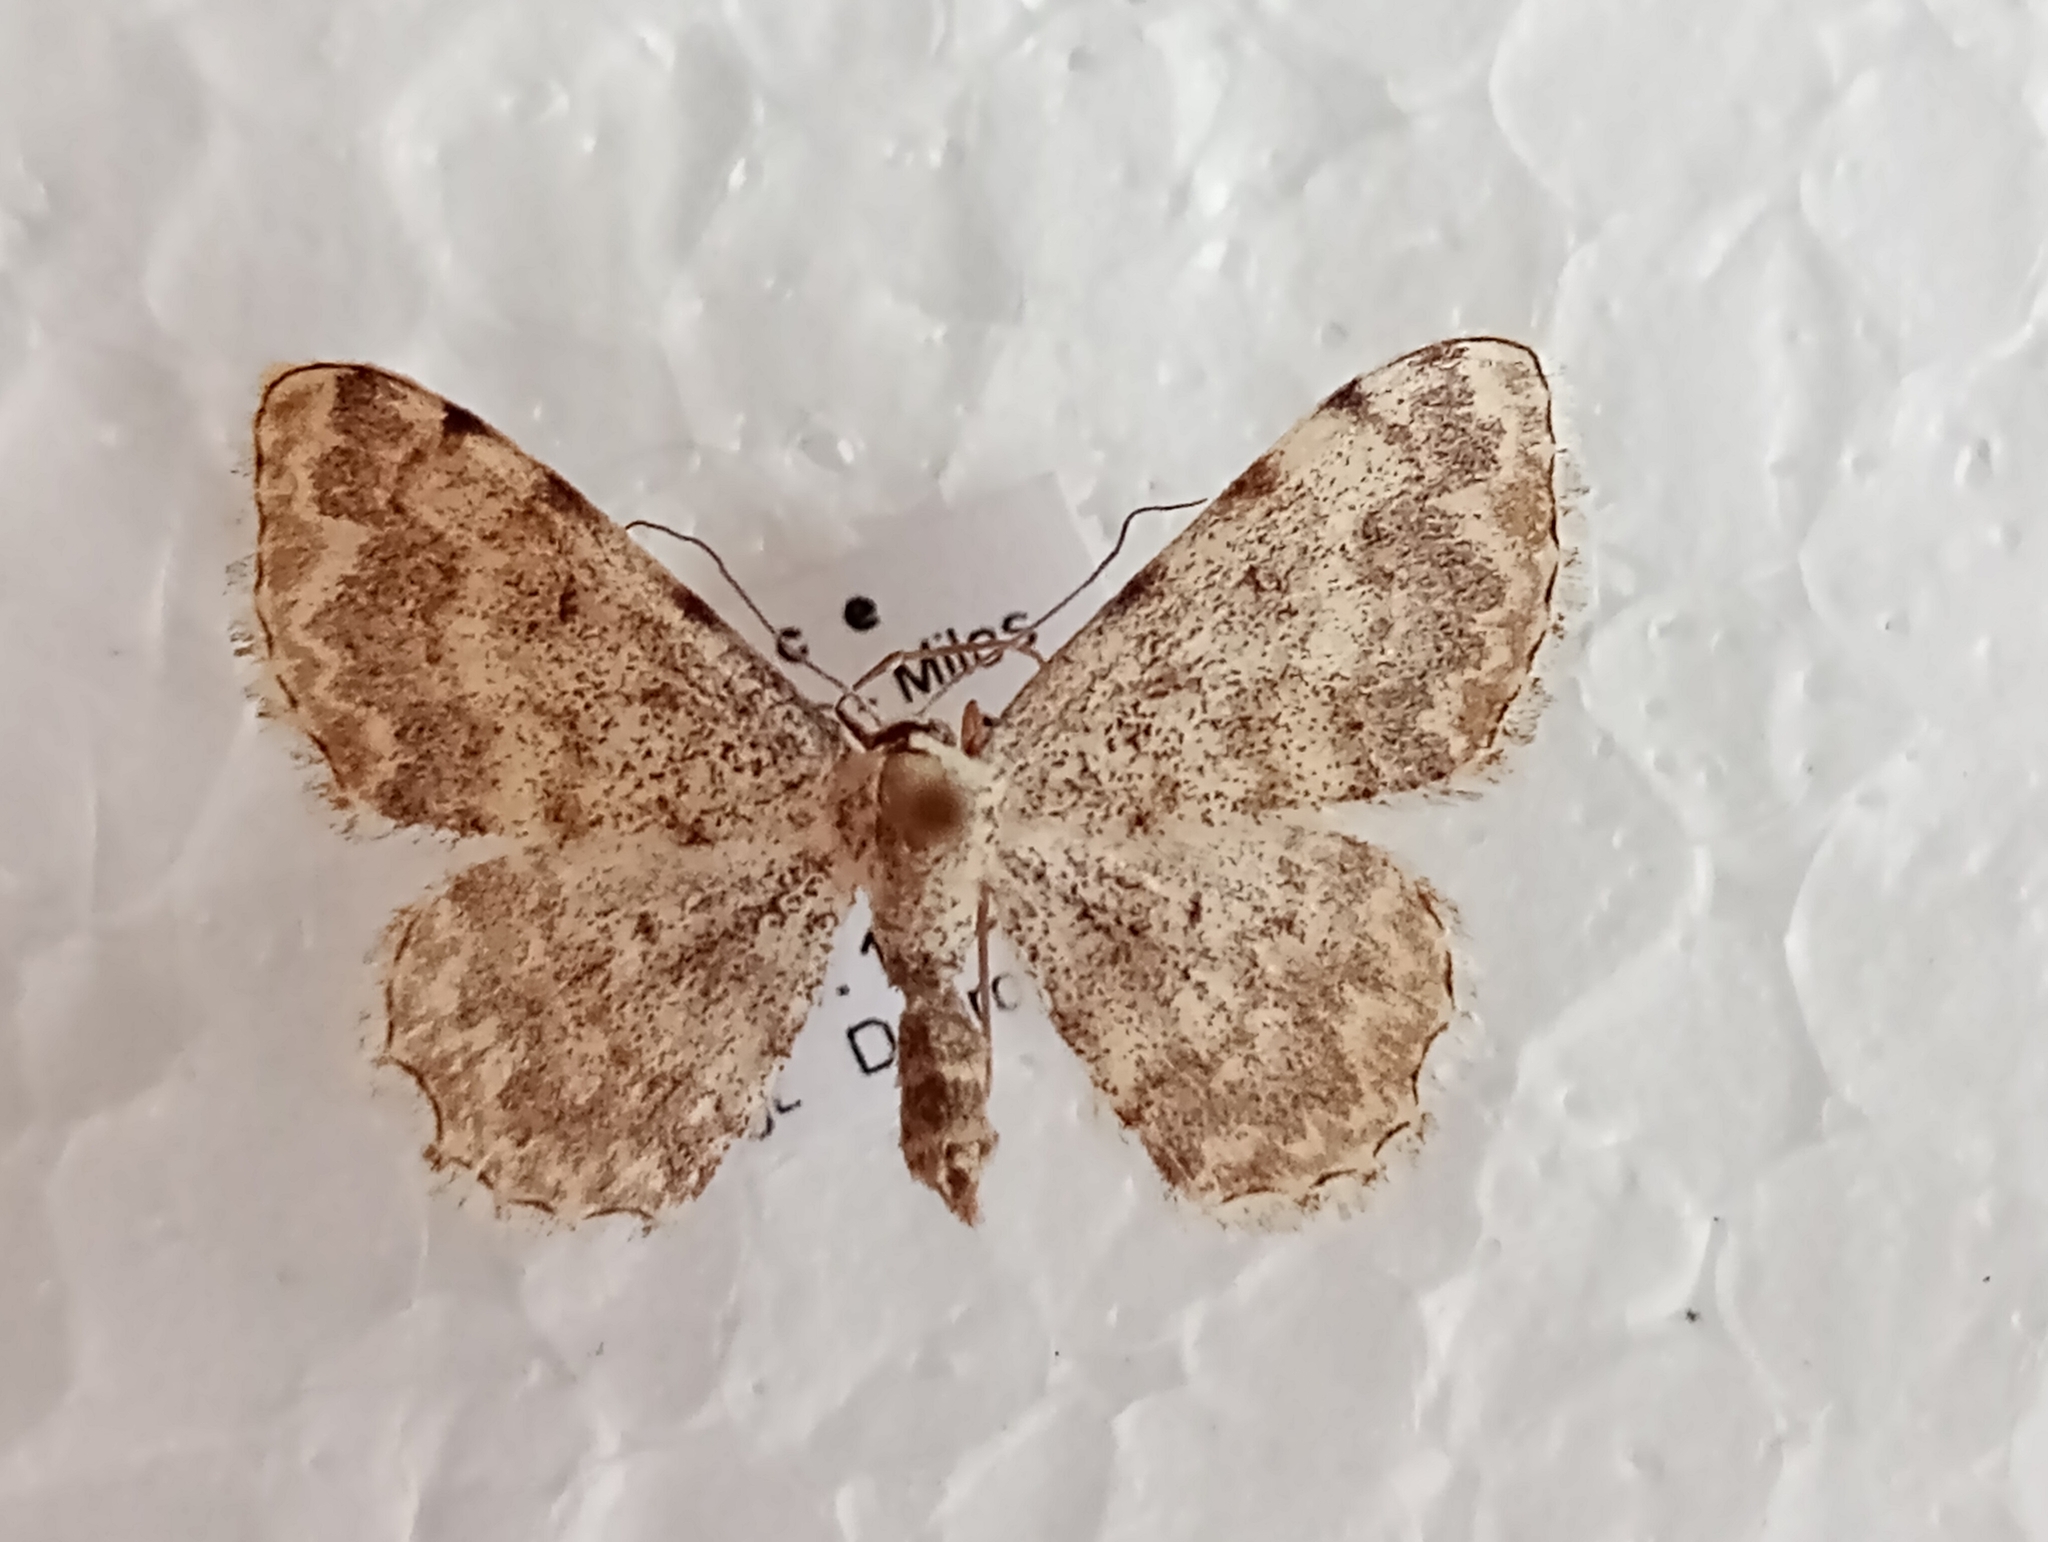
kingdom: Animalia
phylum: Arthropoda
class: Insecta
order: Lepidoptera
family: Geometridae
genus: Scopula
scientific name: Scopula submutata
